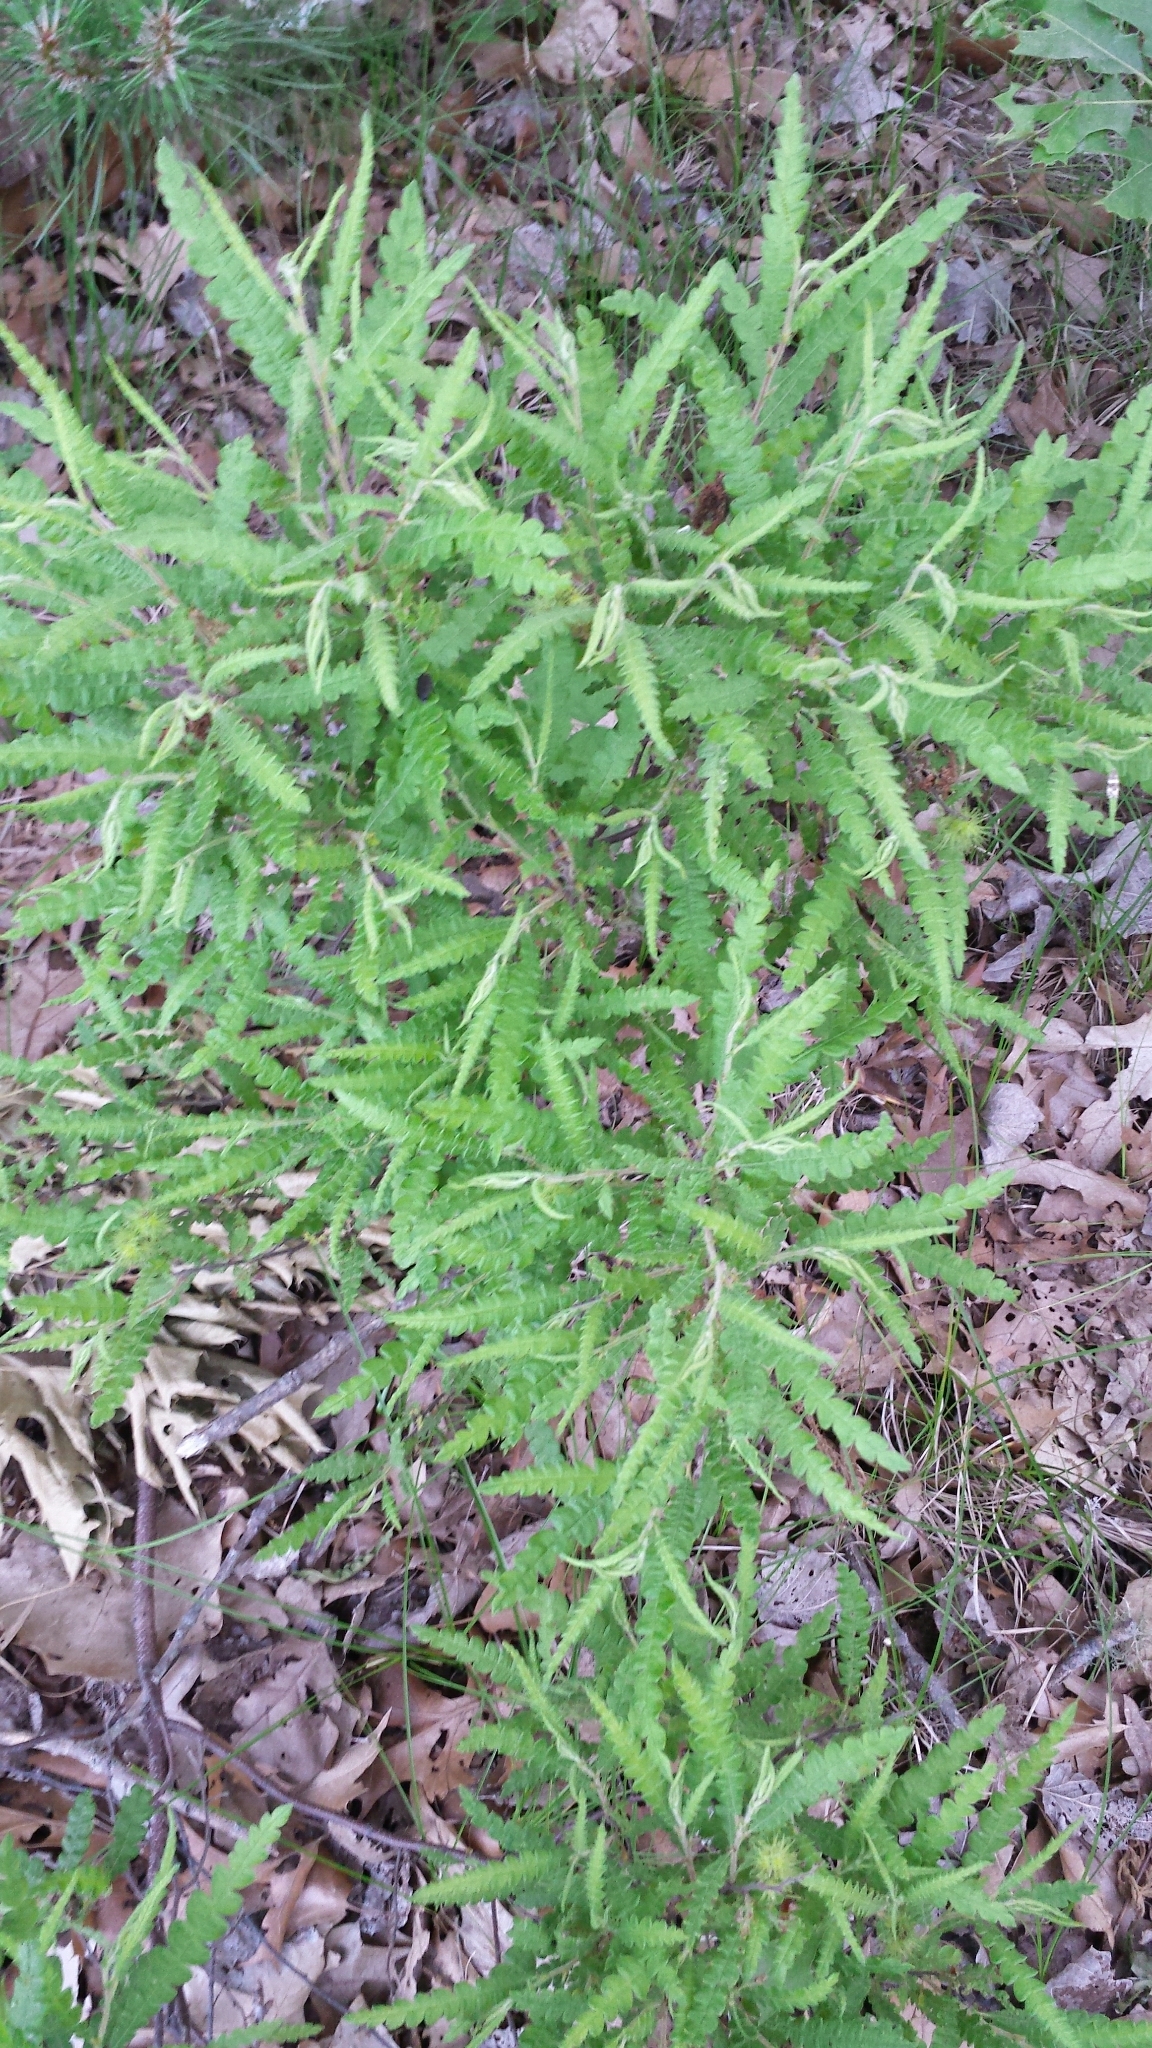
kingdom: Plantae
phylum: Tracheophyta
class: Magnoliopsida
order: Fagales
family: Myricaceae
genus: Comptonia
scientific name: Comptonia peregrina
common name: Sweet-fern
